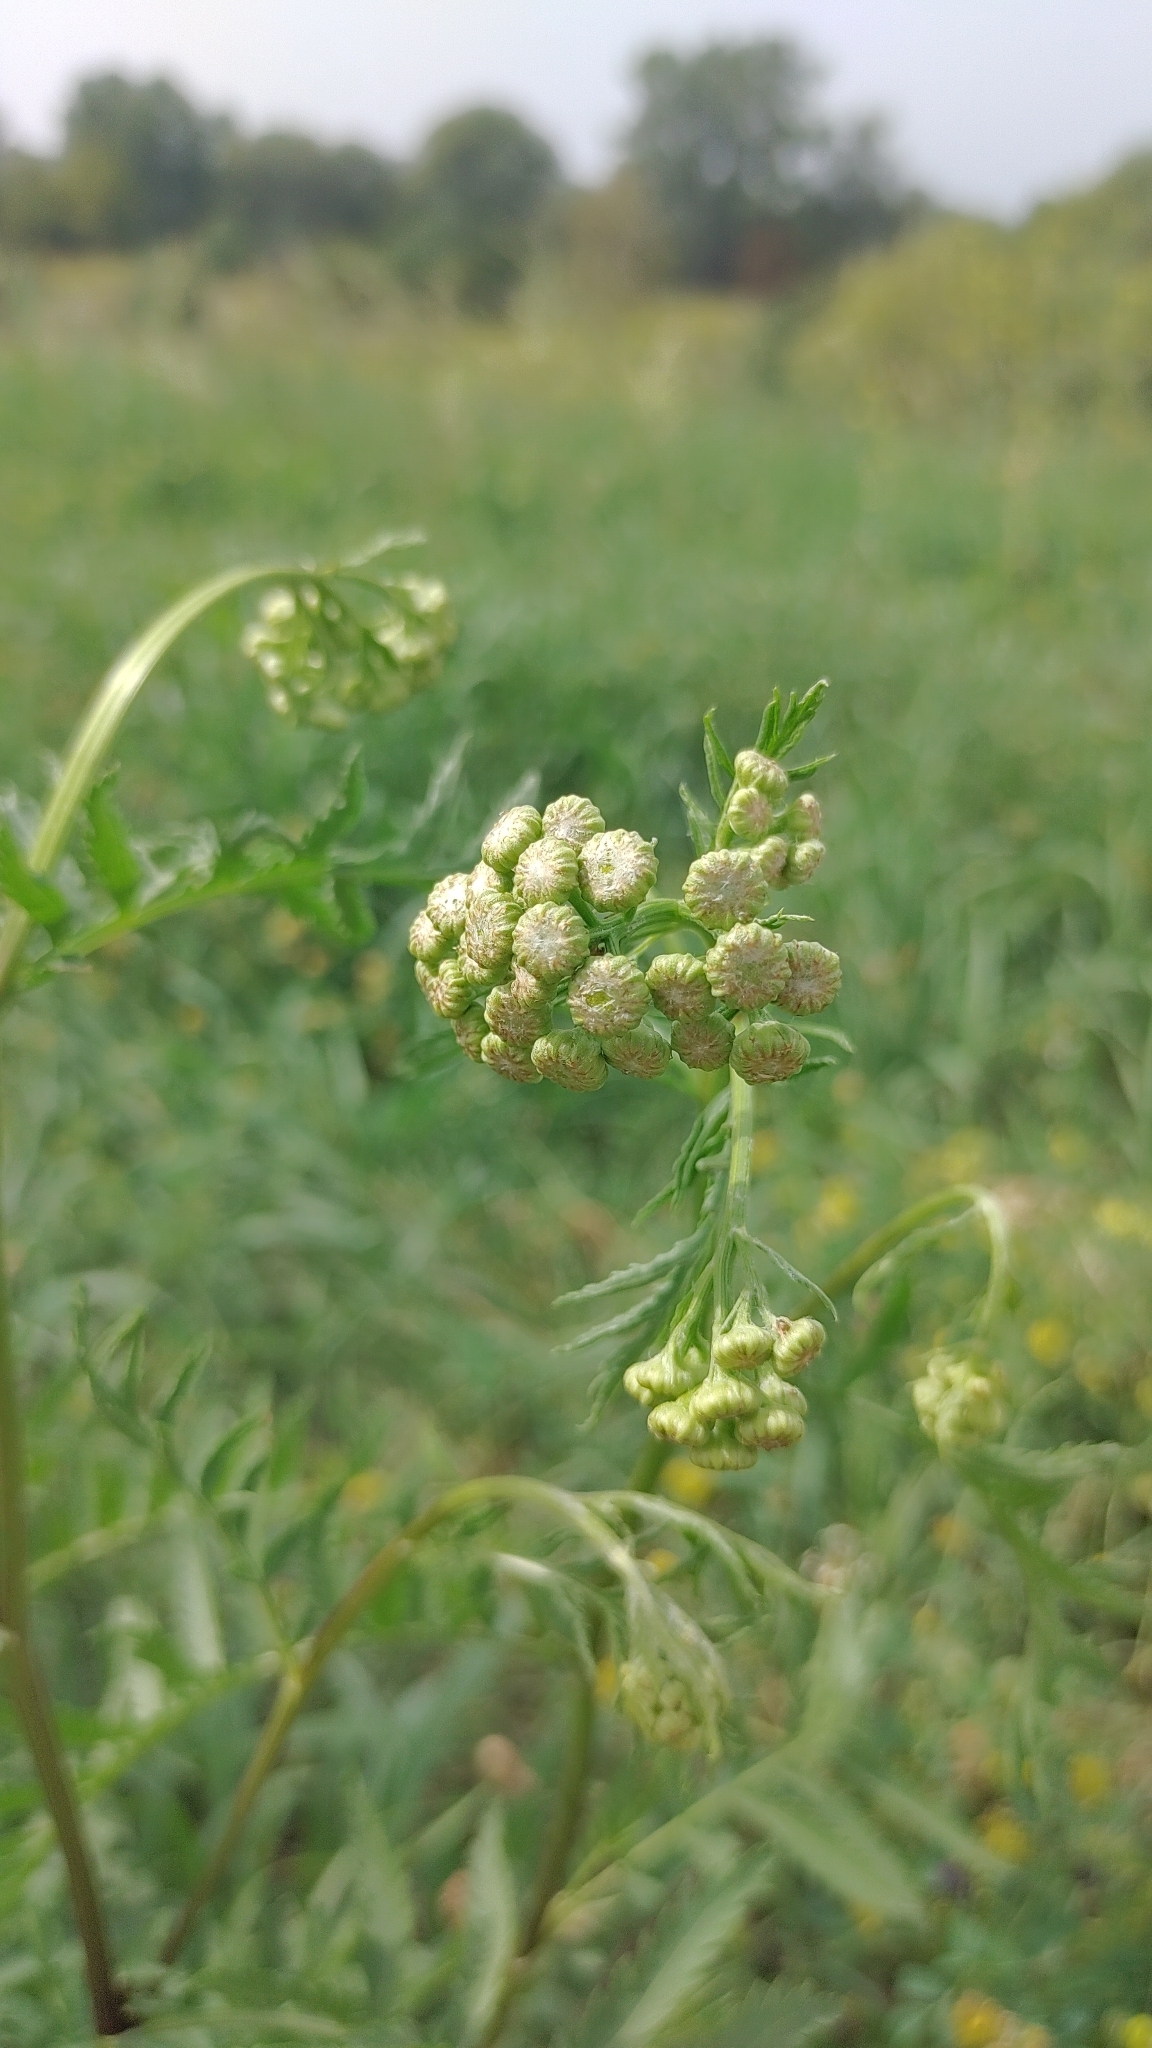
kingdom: Plantae
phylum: Tracheophyta
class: Magnoliopsida
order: Asterales
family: Asteraceae
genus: Tanacetum
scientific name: Tanacetum vulgare
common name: Common tansy
